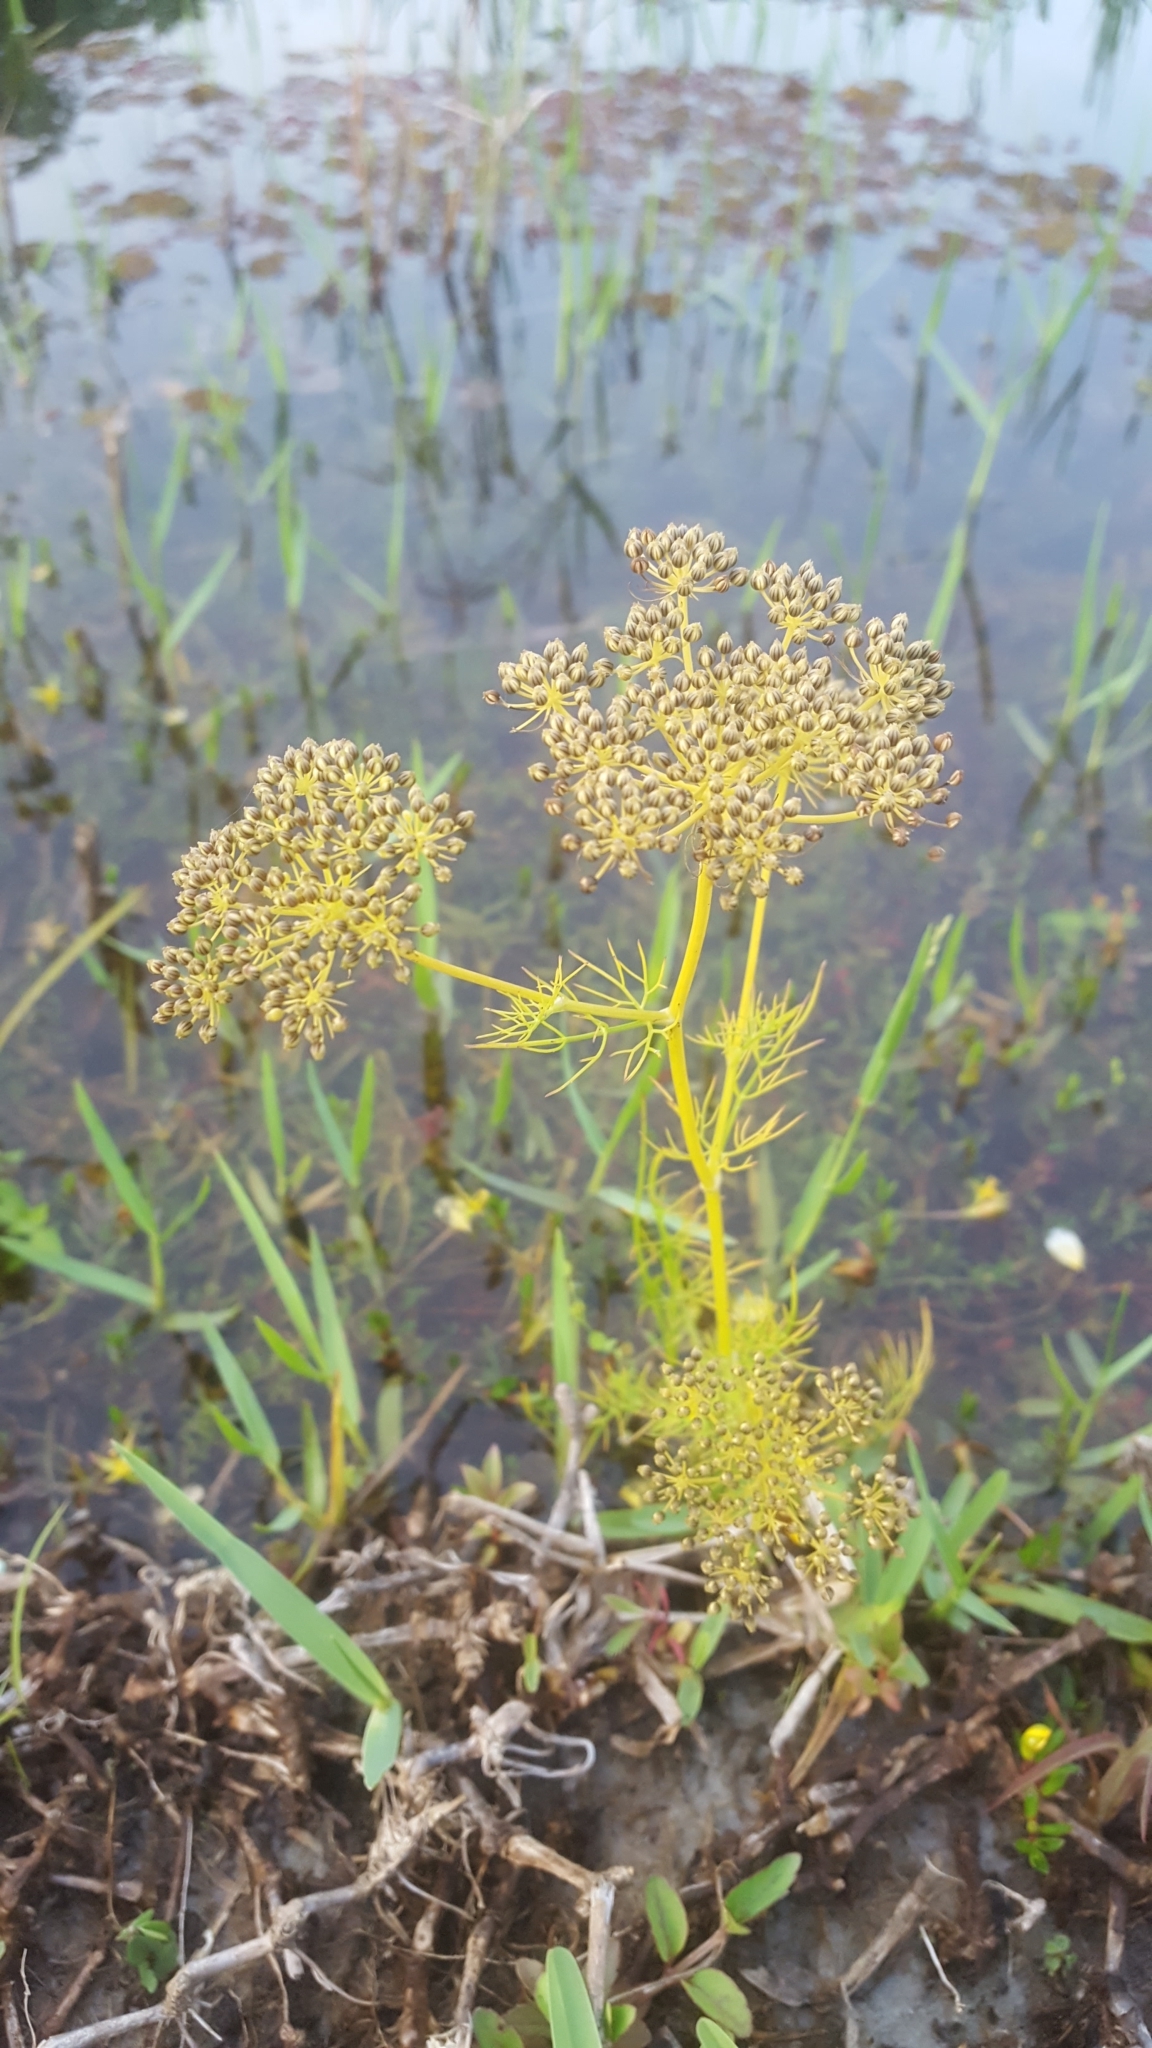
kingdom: Plantae
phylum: Tracheophyta
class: Magnoliopsida
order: Apiales
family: Apiaceae
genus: Foeniculum
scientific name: Foeniculum vulgare
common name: Fennel
